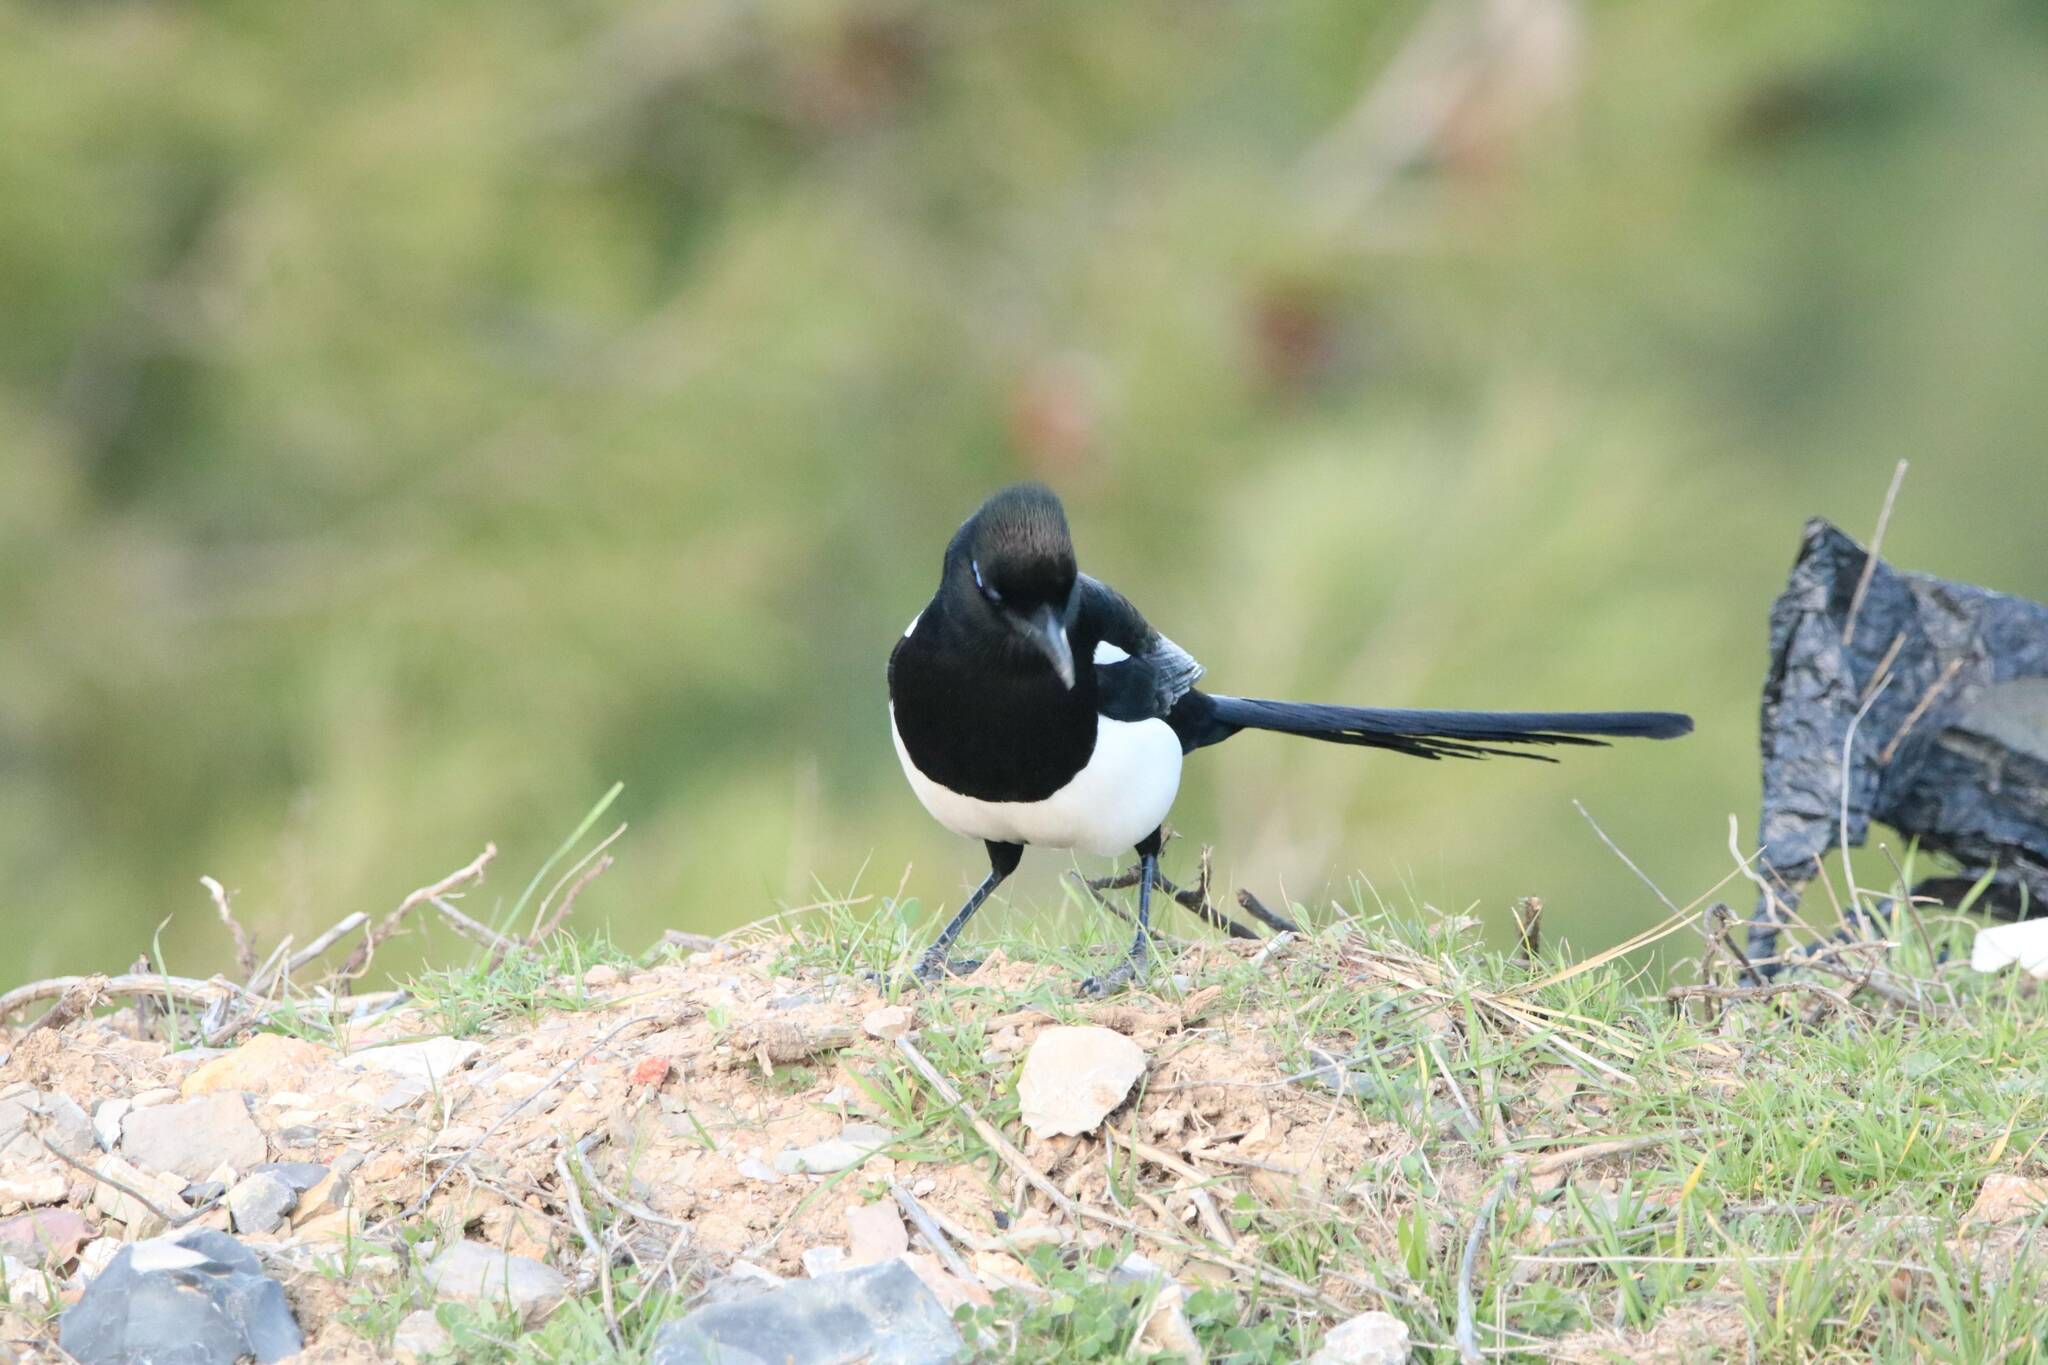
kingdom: Animalia
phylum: Chordata
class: Aves
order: Passeriformes
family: Corvidae
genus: Pica
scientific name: Pica mauritanica
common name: Maghreb magpie
